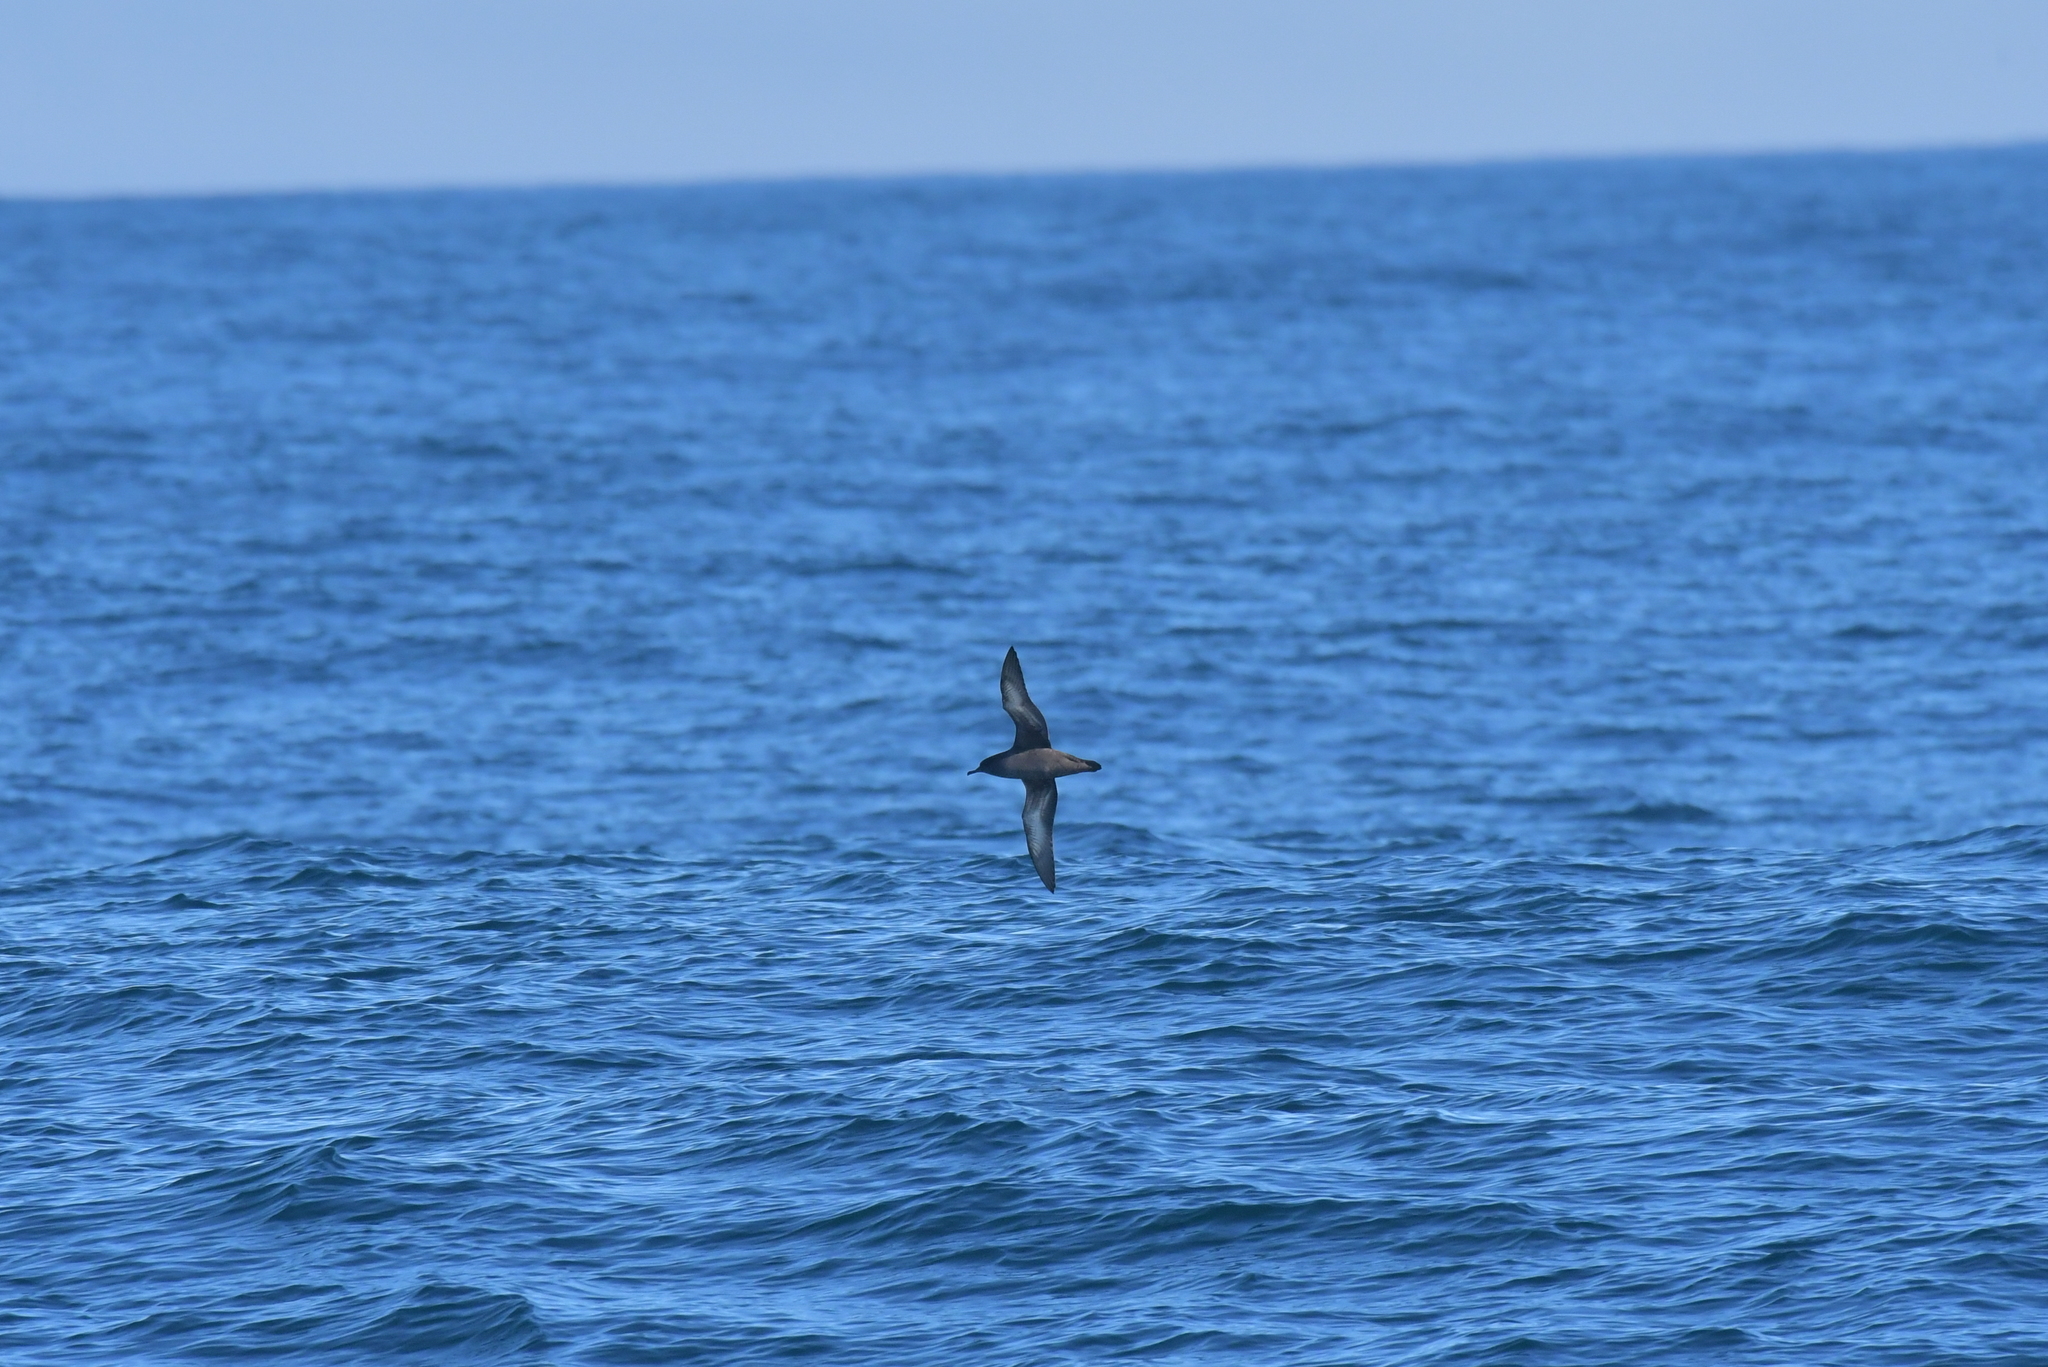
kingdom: Animalia
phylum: Chordata
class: Aves
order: Procellariiformes
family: Procellariidae
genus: Puffinus
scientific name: Puffinus griseus
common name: Sooty shearwater
